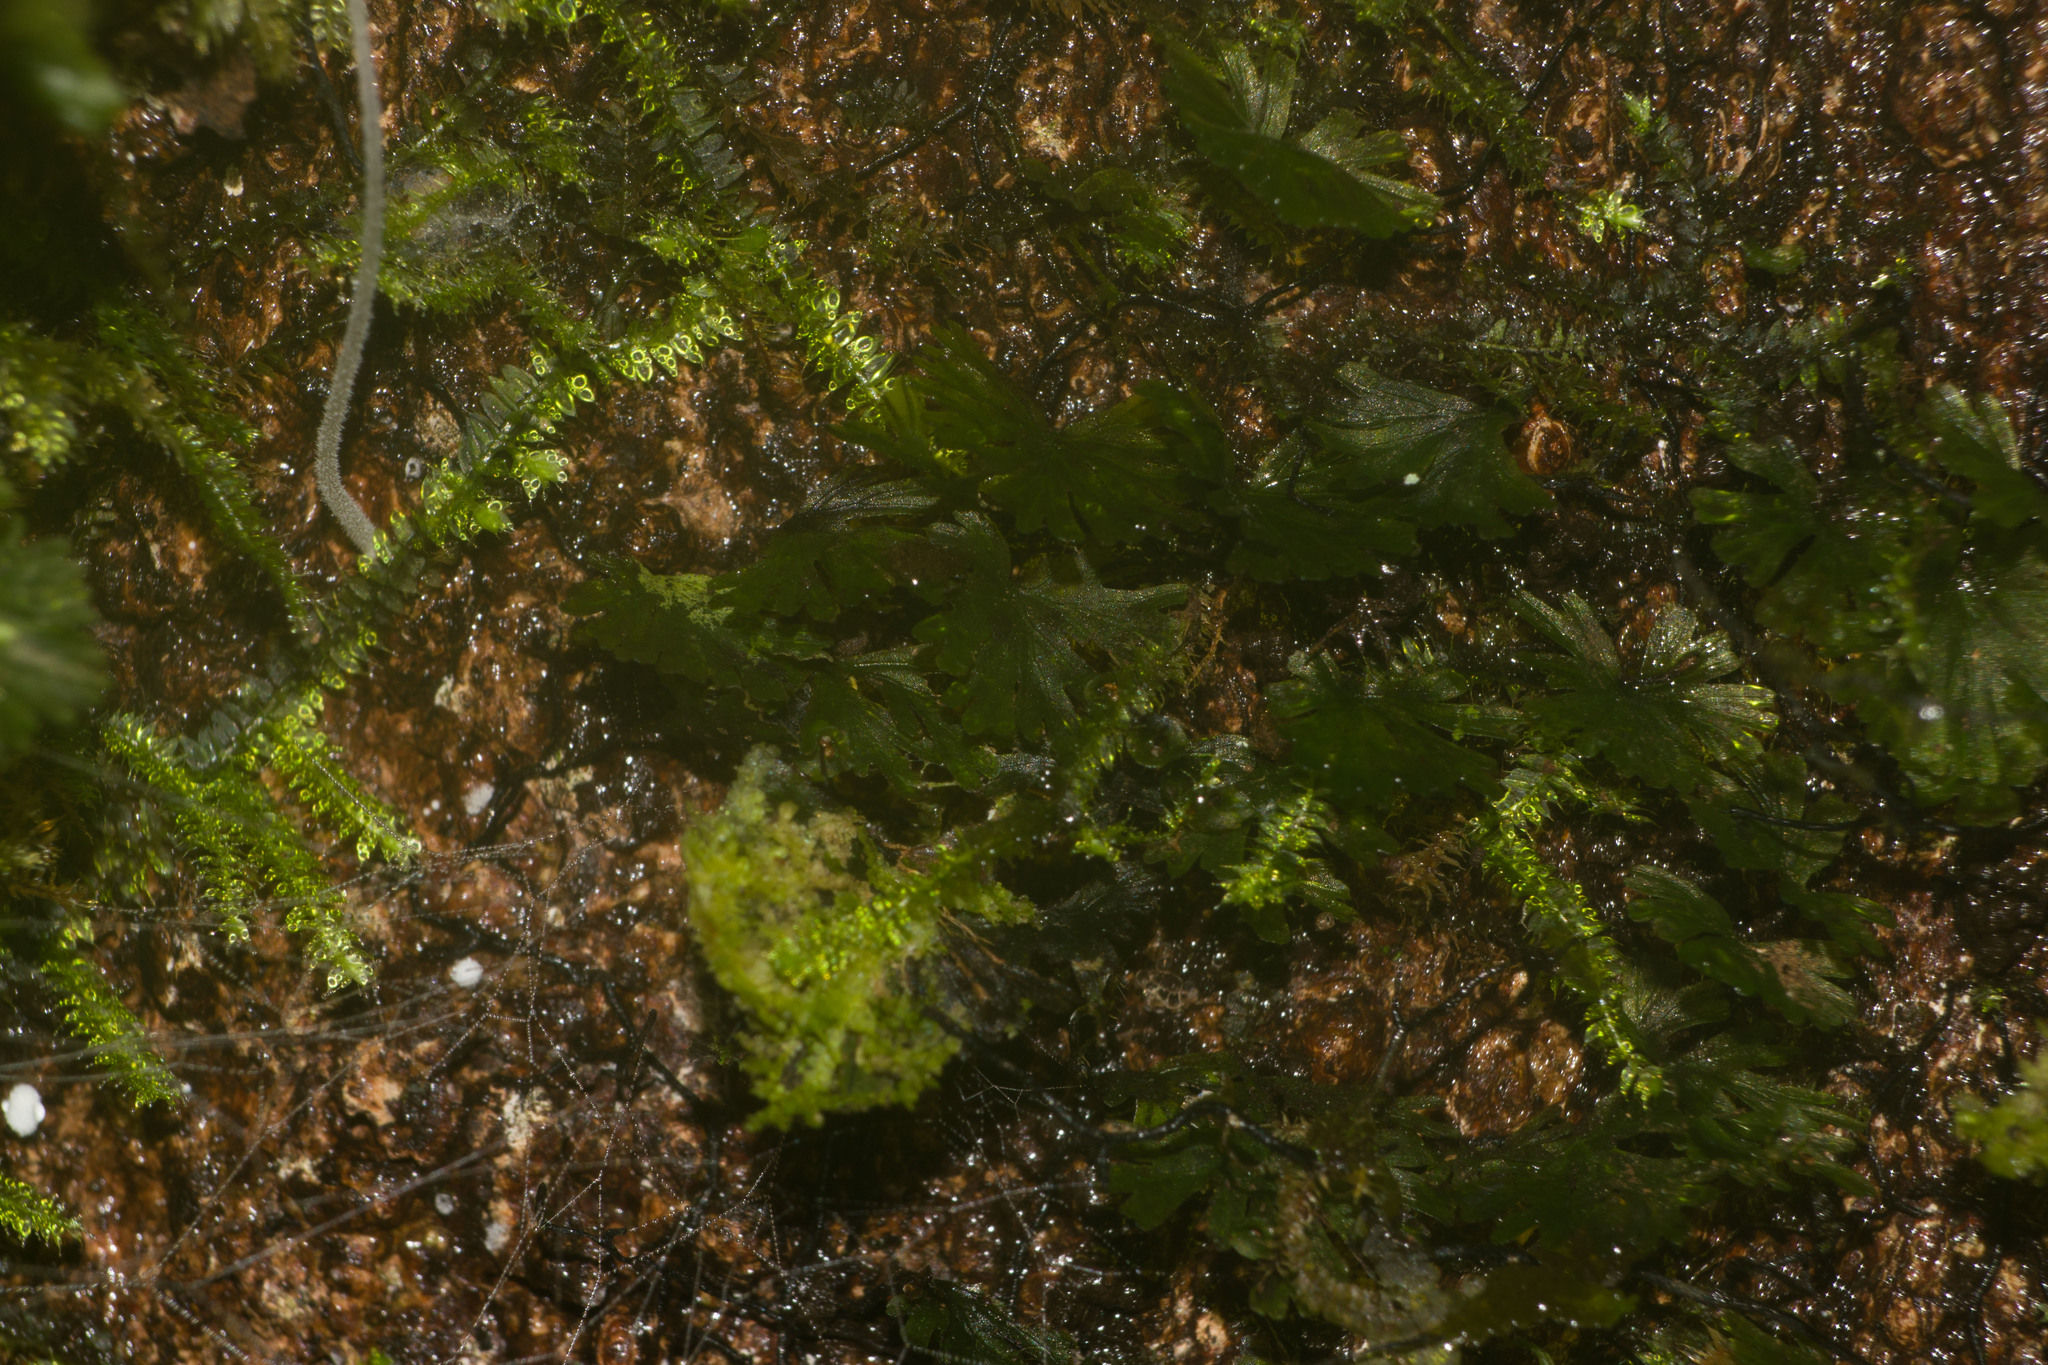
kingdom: Plantae
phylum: Tracheophyta
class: Polypodiopsida
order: Hymenophyllales
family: Hymenophyllaceae
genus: Crepidomanes
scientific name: Crepidomanes parvulum
